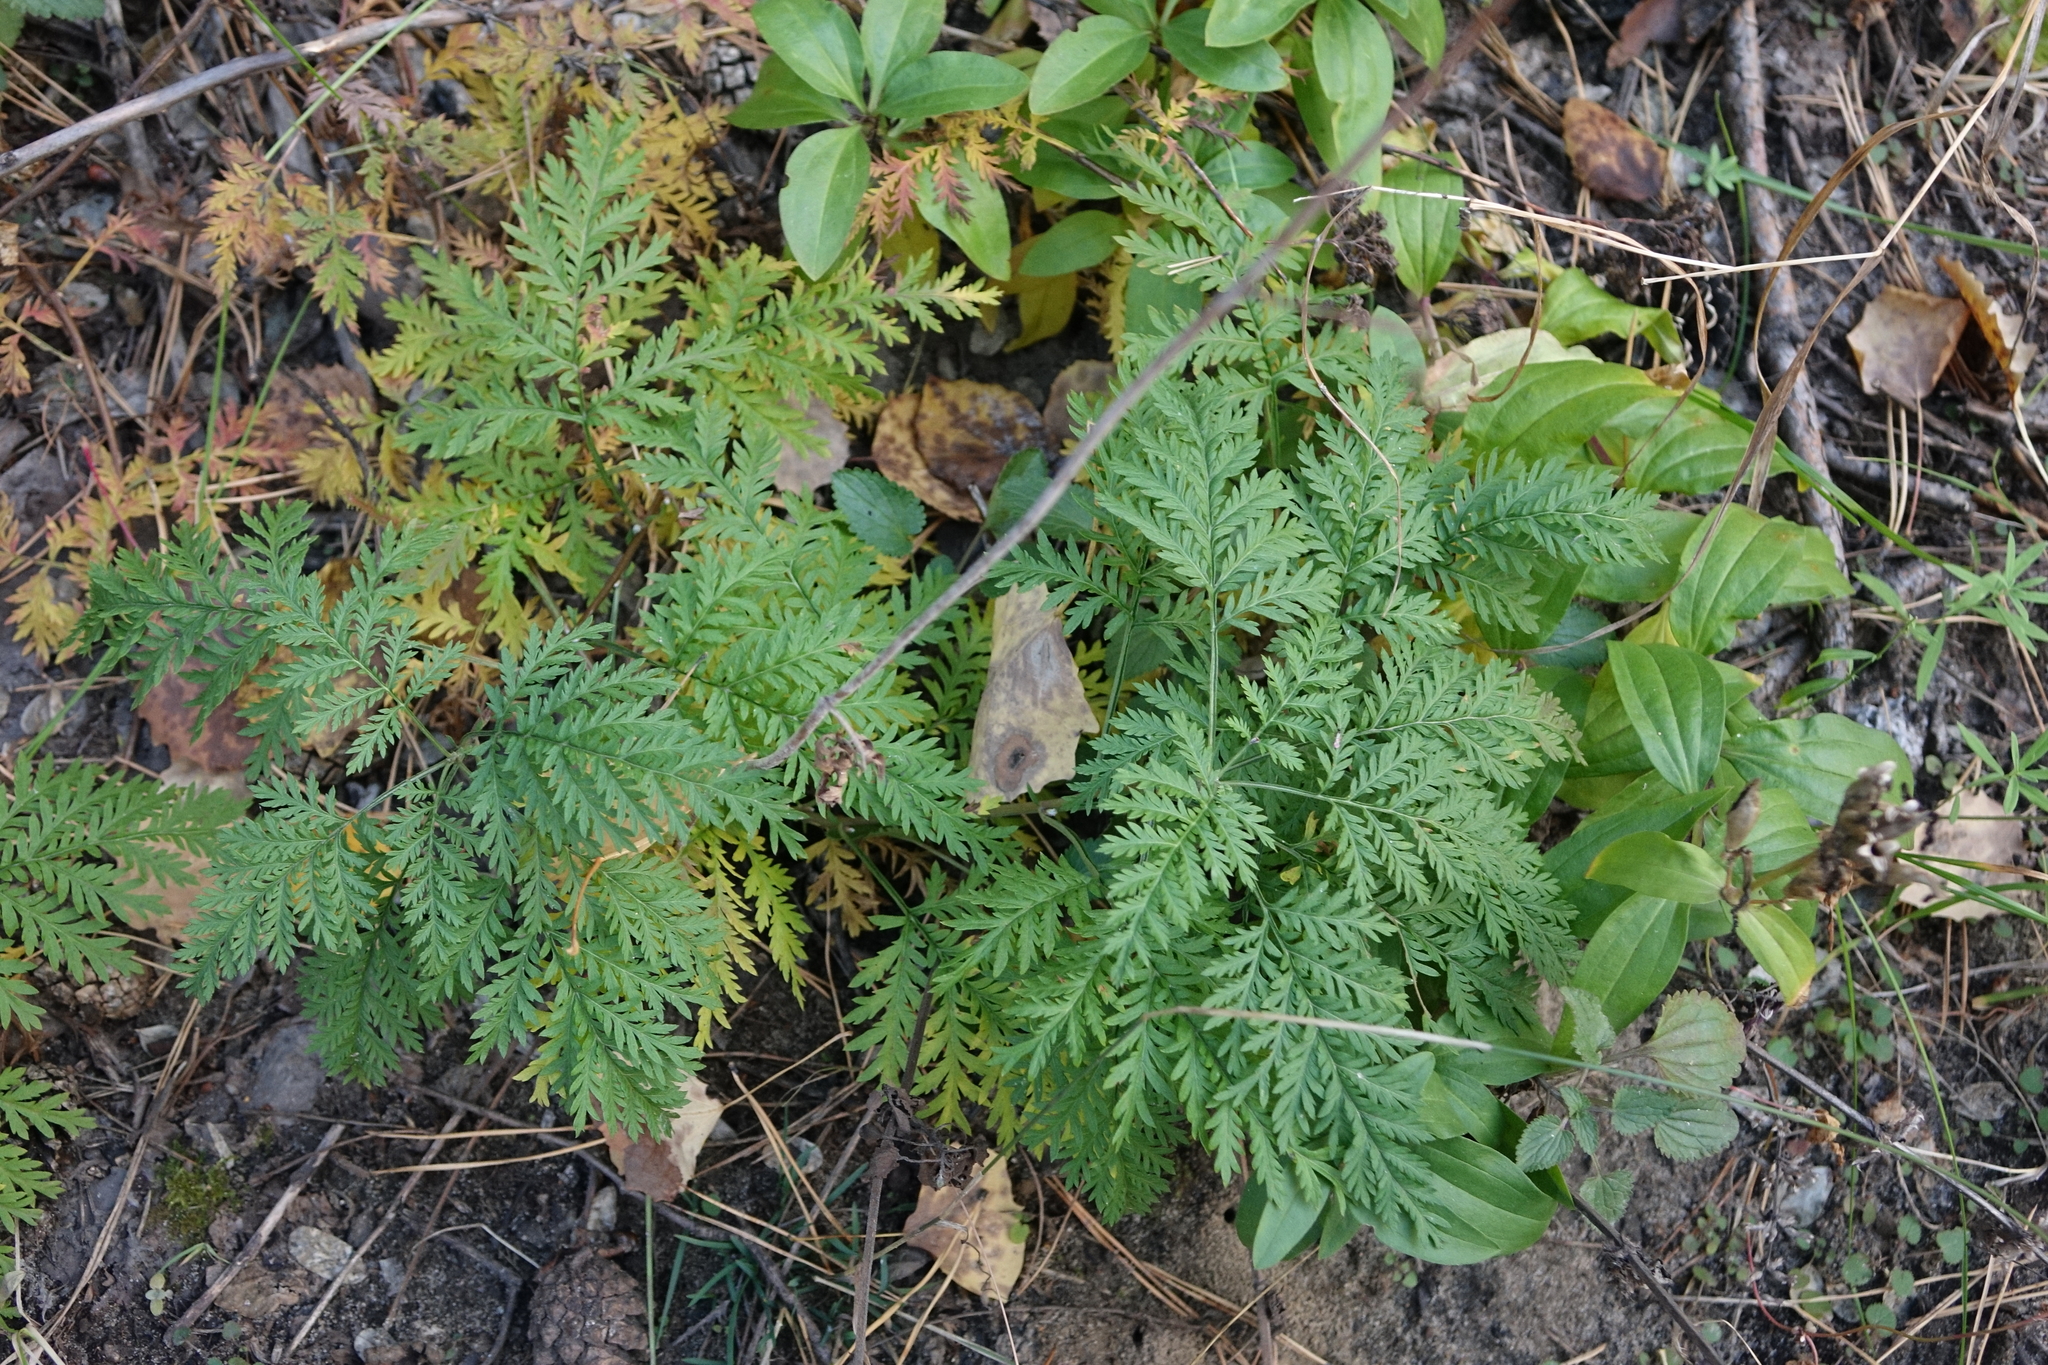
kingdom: Plantae
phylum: Tracheophyta
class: Magnoliopsida
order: Asterales
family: Asteraceae
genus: Artemisia
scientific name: Artemisia gmelinii
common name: Gmelin's wormwood
